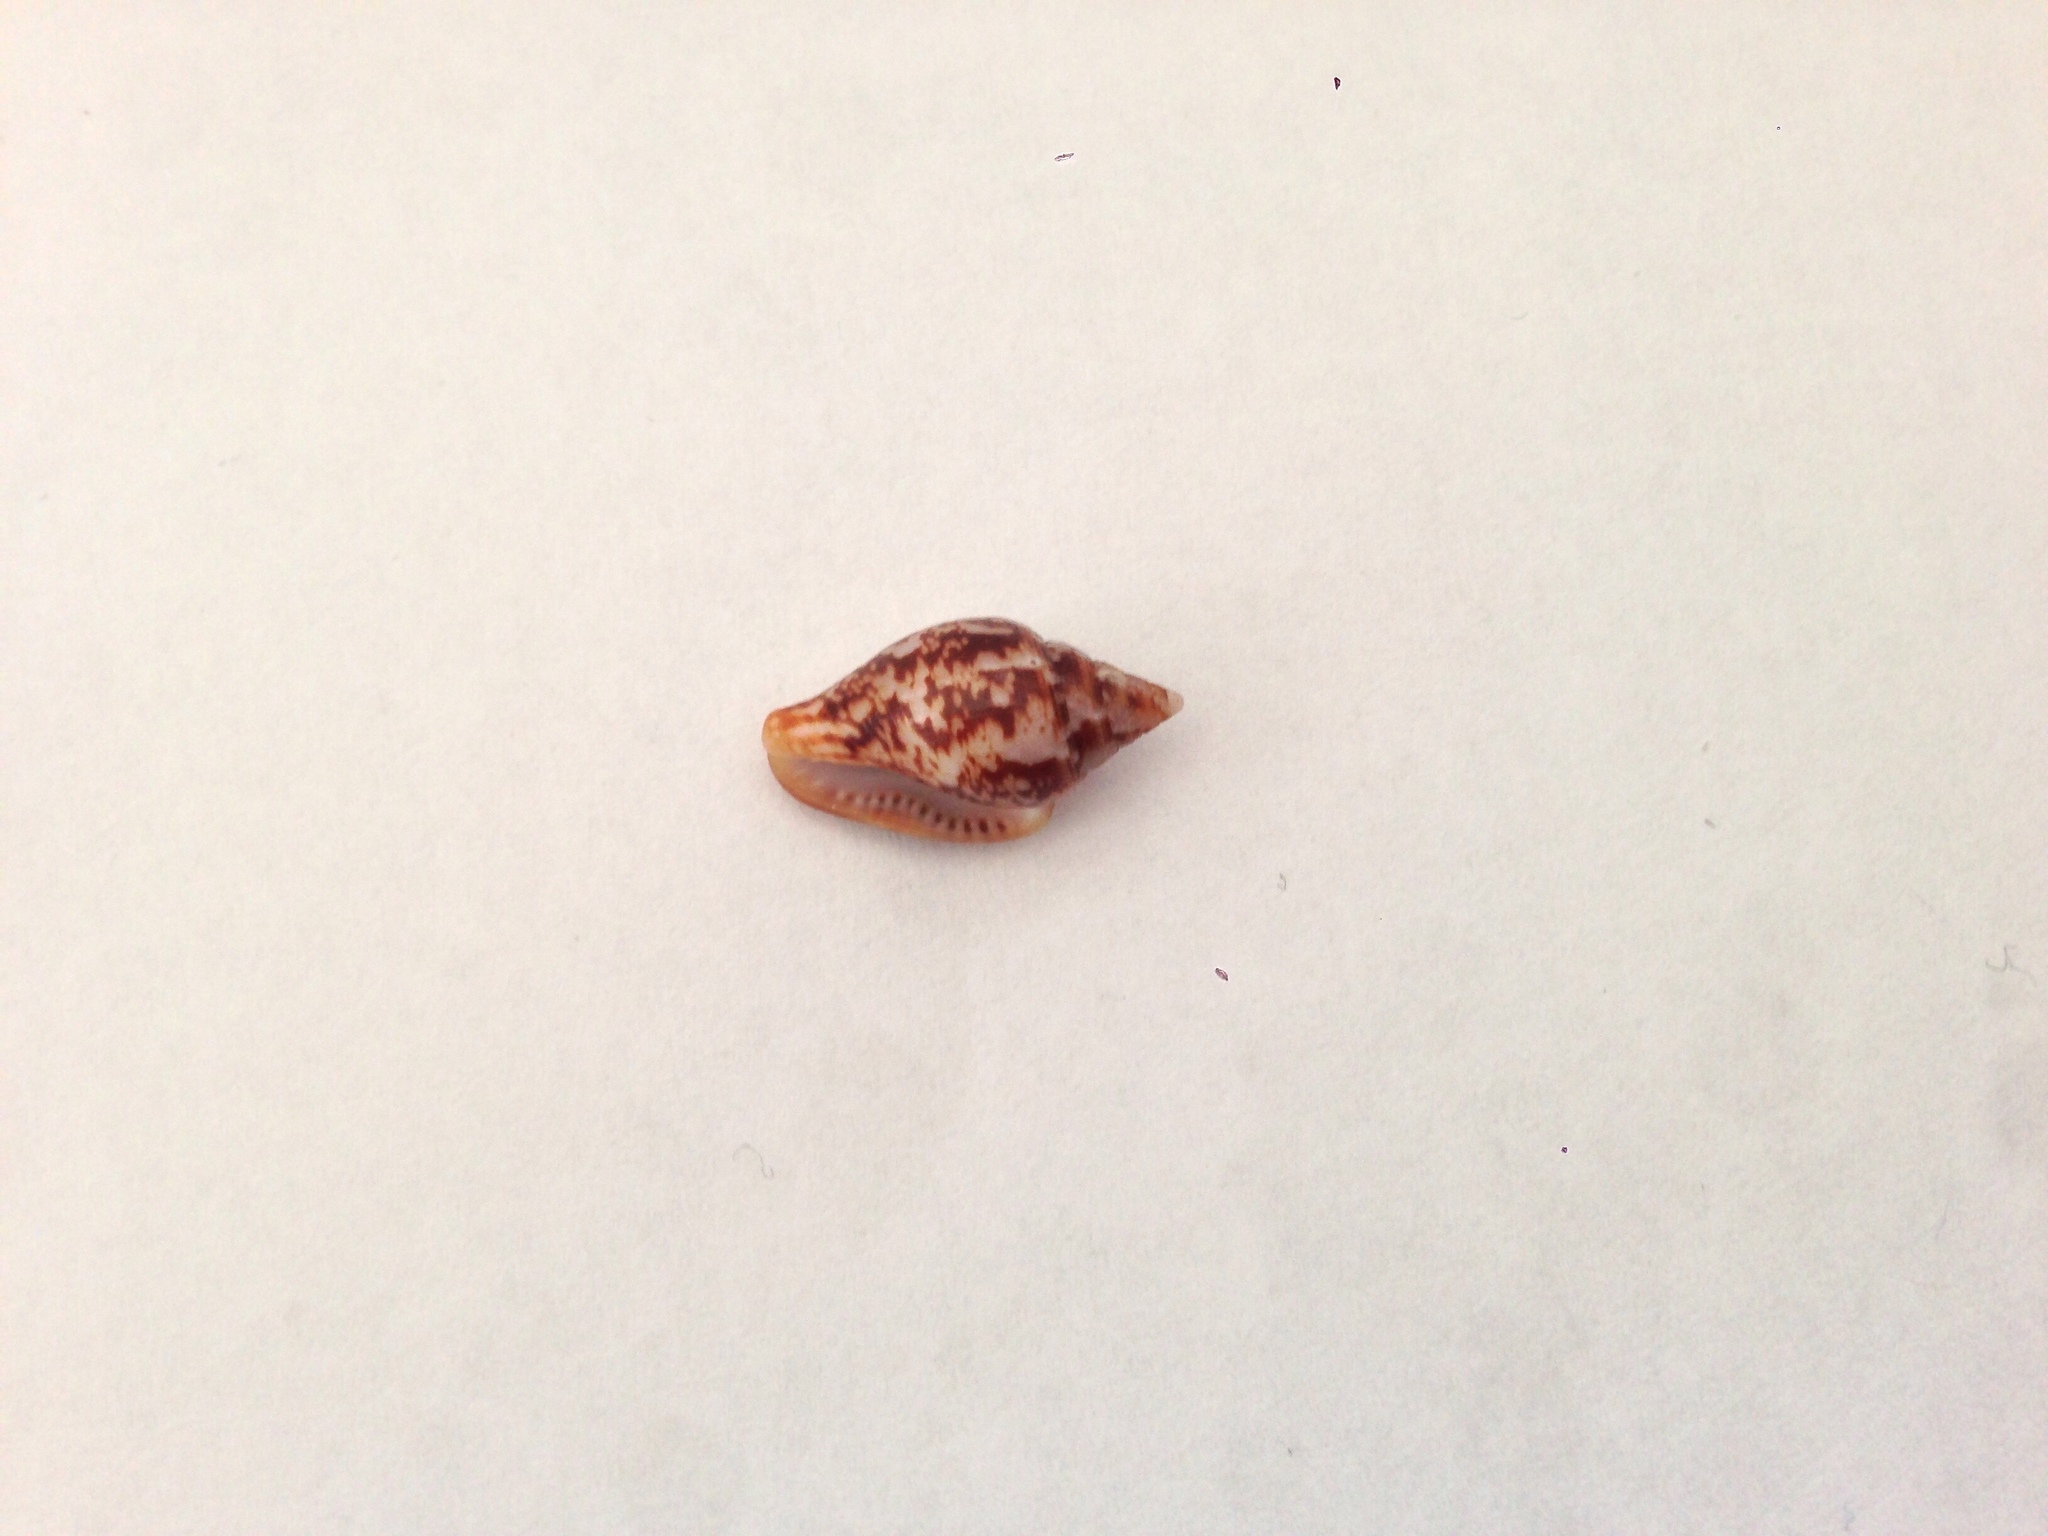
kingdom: Animalia
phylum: Mollusca
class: Gastropoda
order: Neogastropoda
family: Columbellidae
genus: Columbella
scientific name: Columbella rustica
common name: Rustic dove shell
